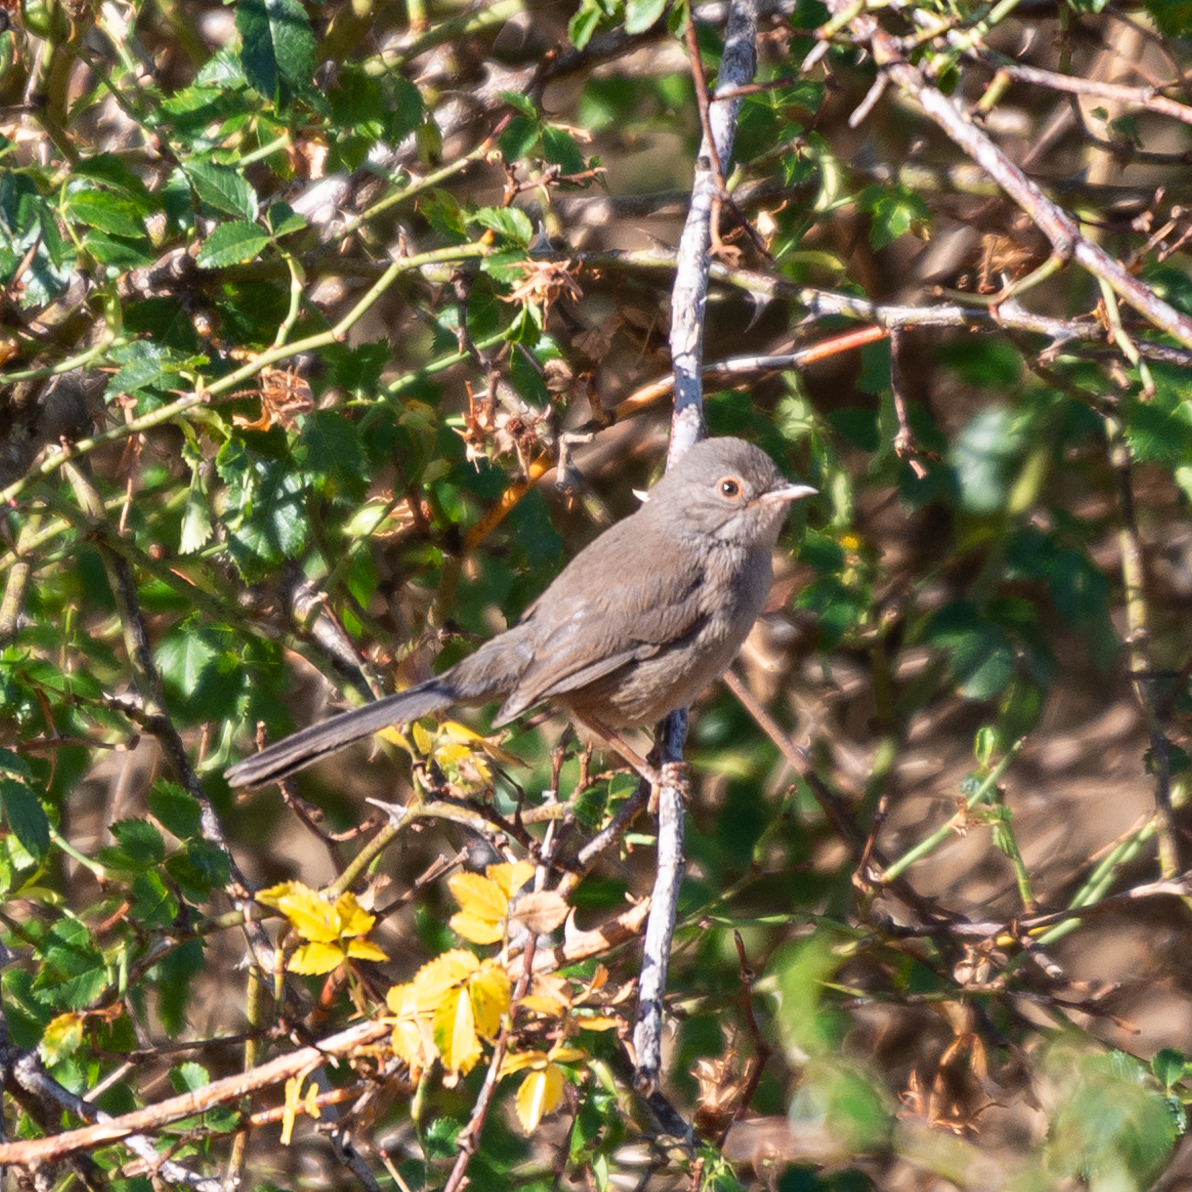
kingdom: Animalia
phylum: Chordata
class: Aves
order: Passeriformes
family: Sylviidae
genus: Sylvia
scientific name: Sylvia undata
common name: Dartford warbler
